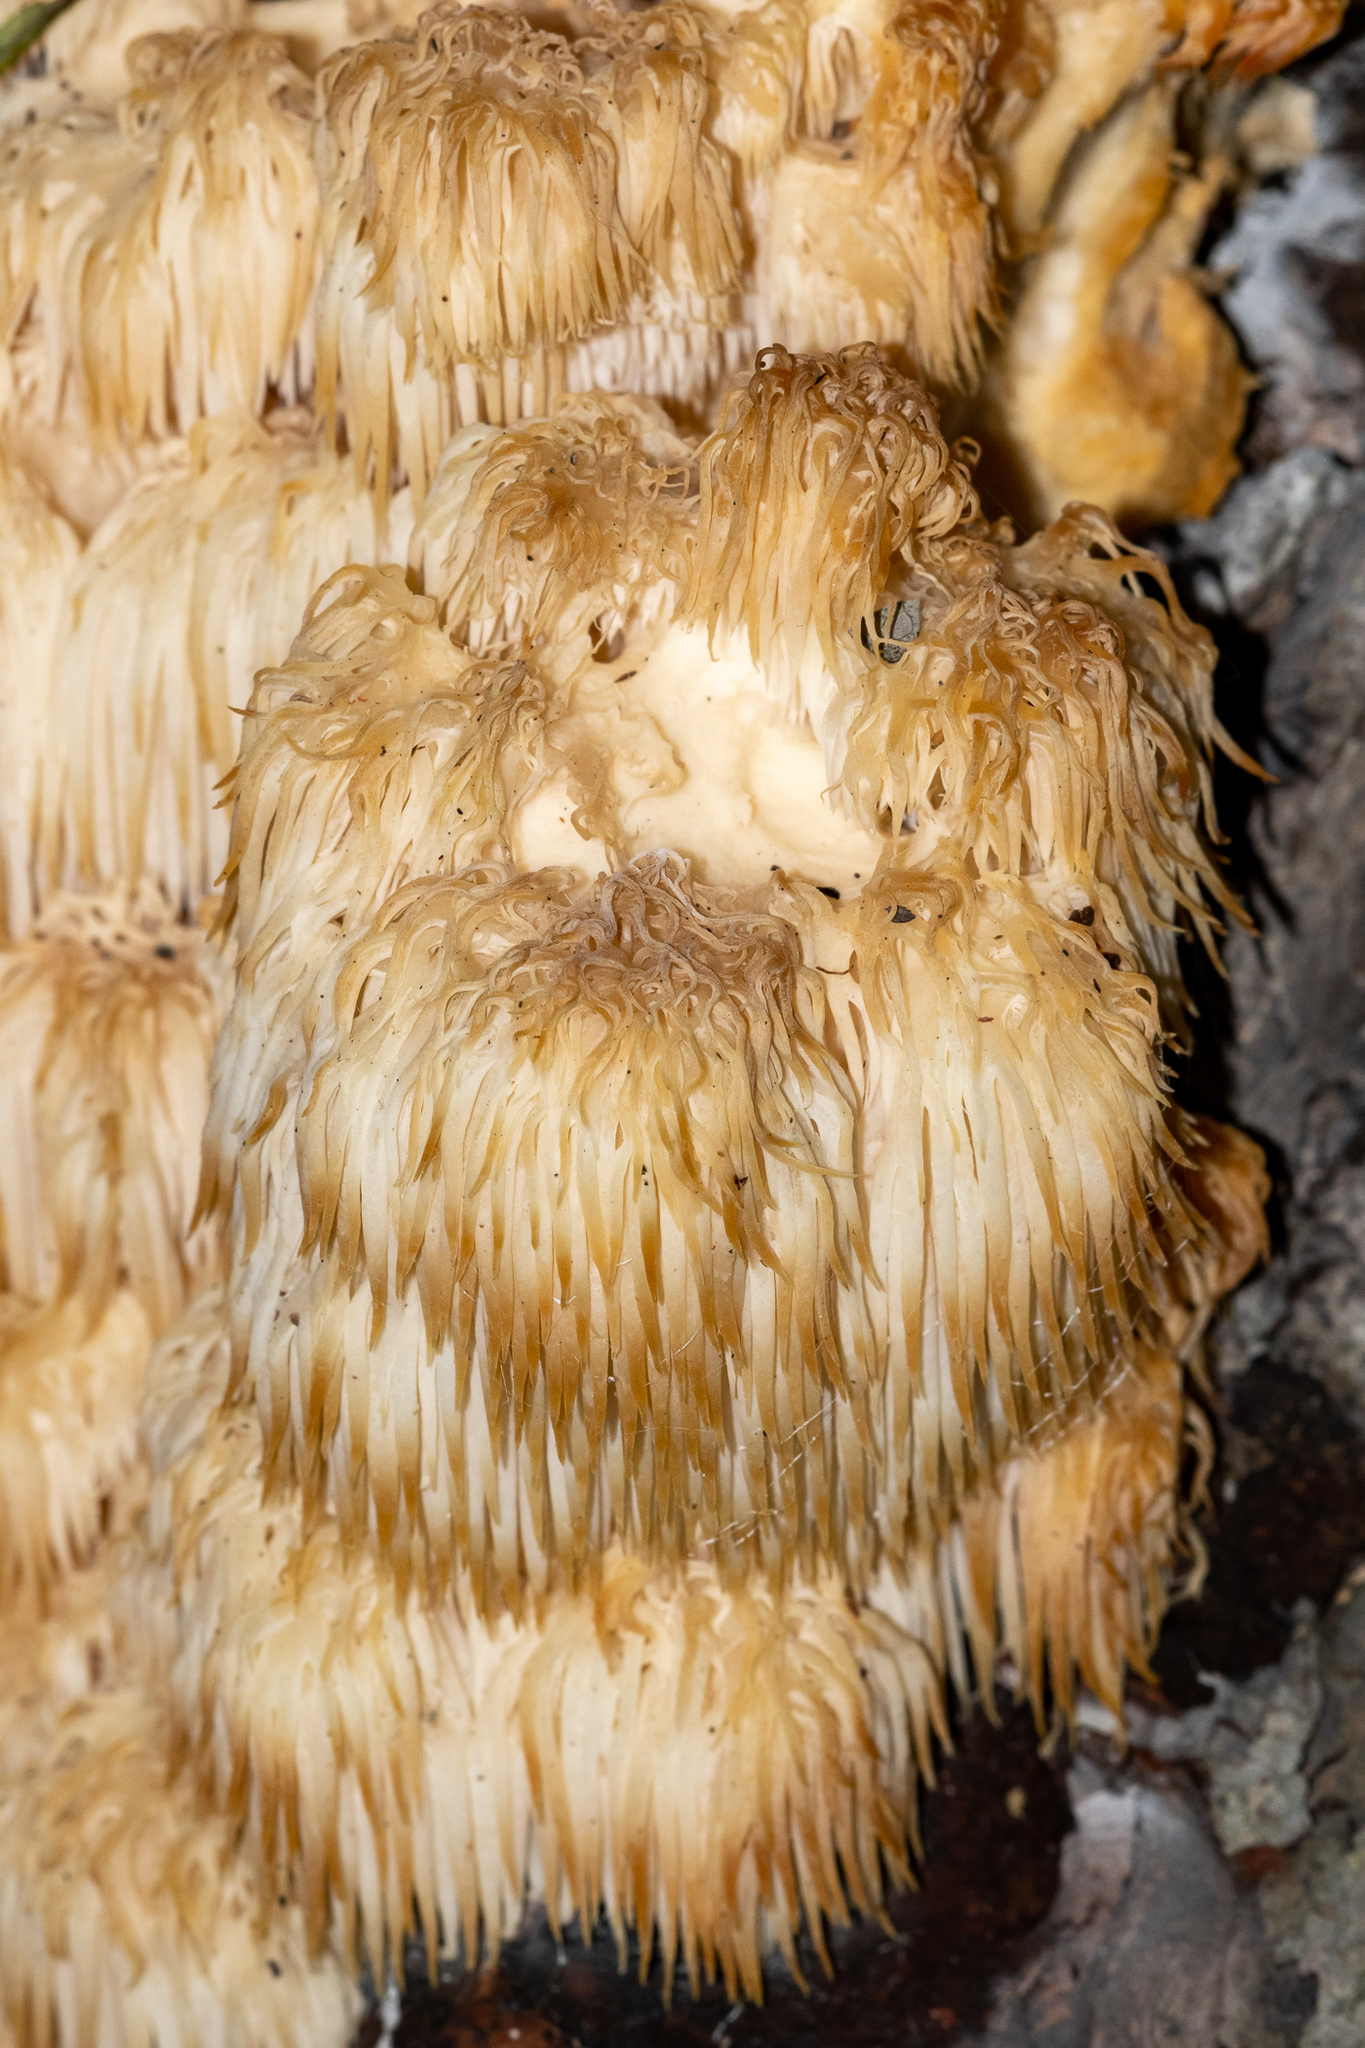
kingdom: Fungi
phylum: Basidiomycota
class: Agaricomycetes
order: Russulales
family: Hericiaceae
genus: Hericium
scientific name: Hericium americanum
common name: Bear's head tooth
